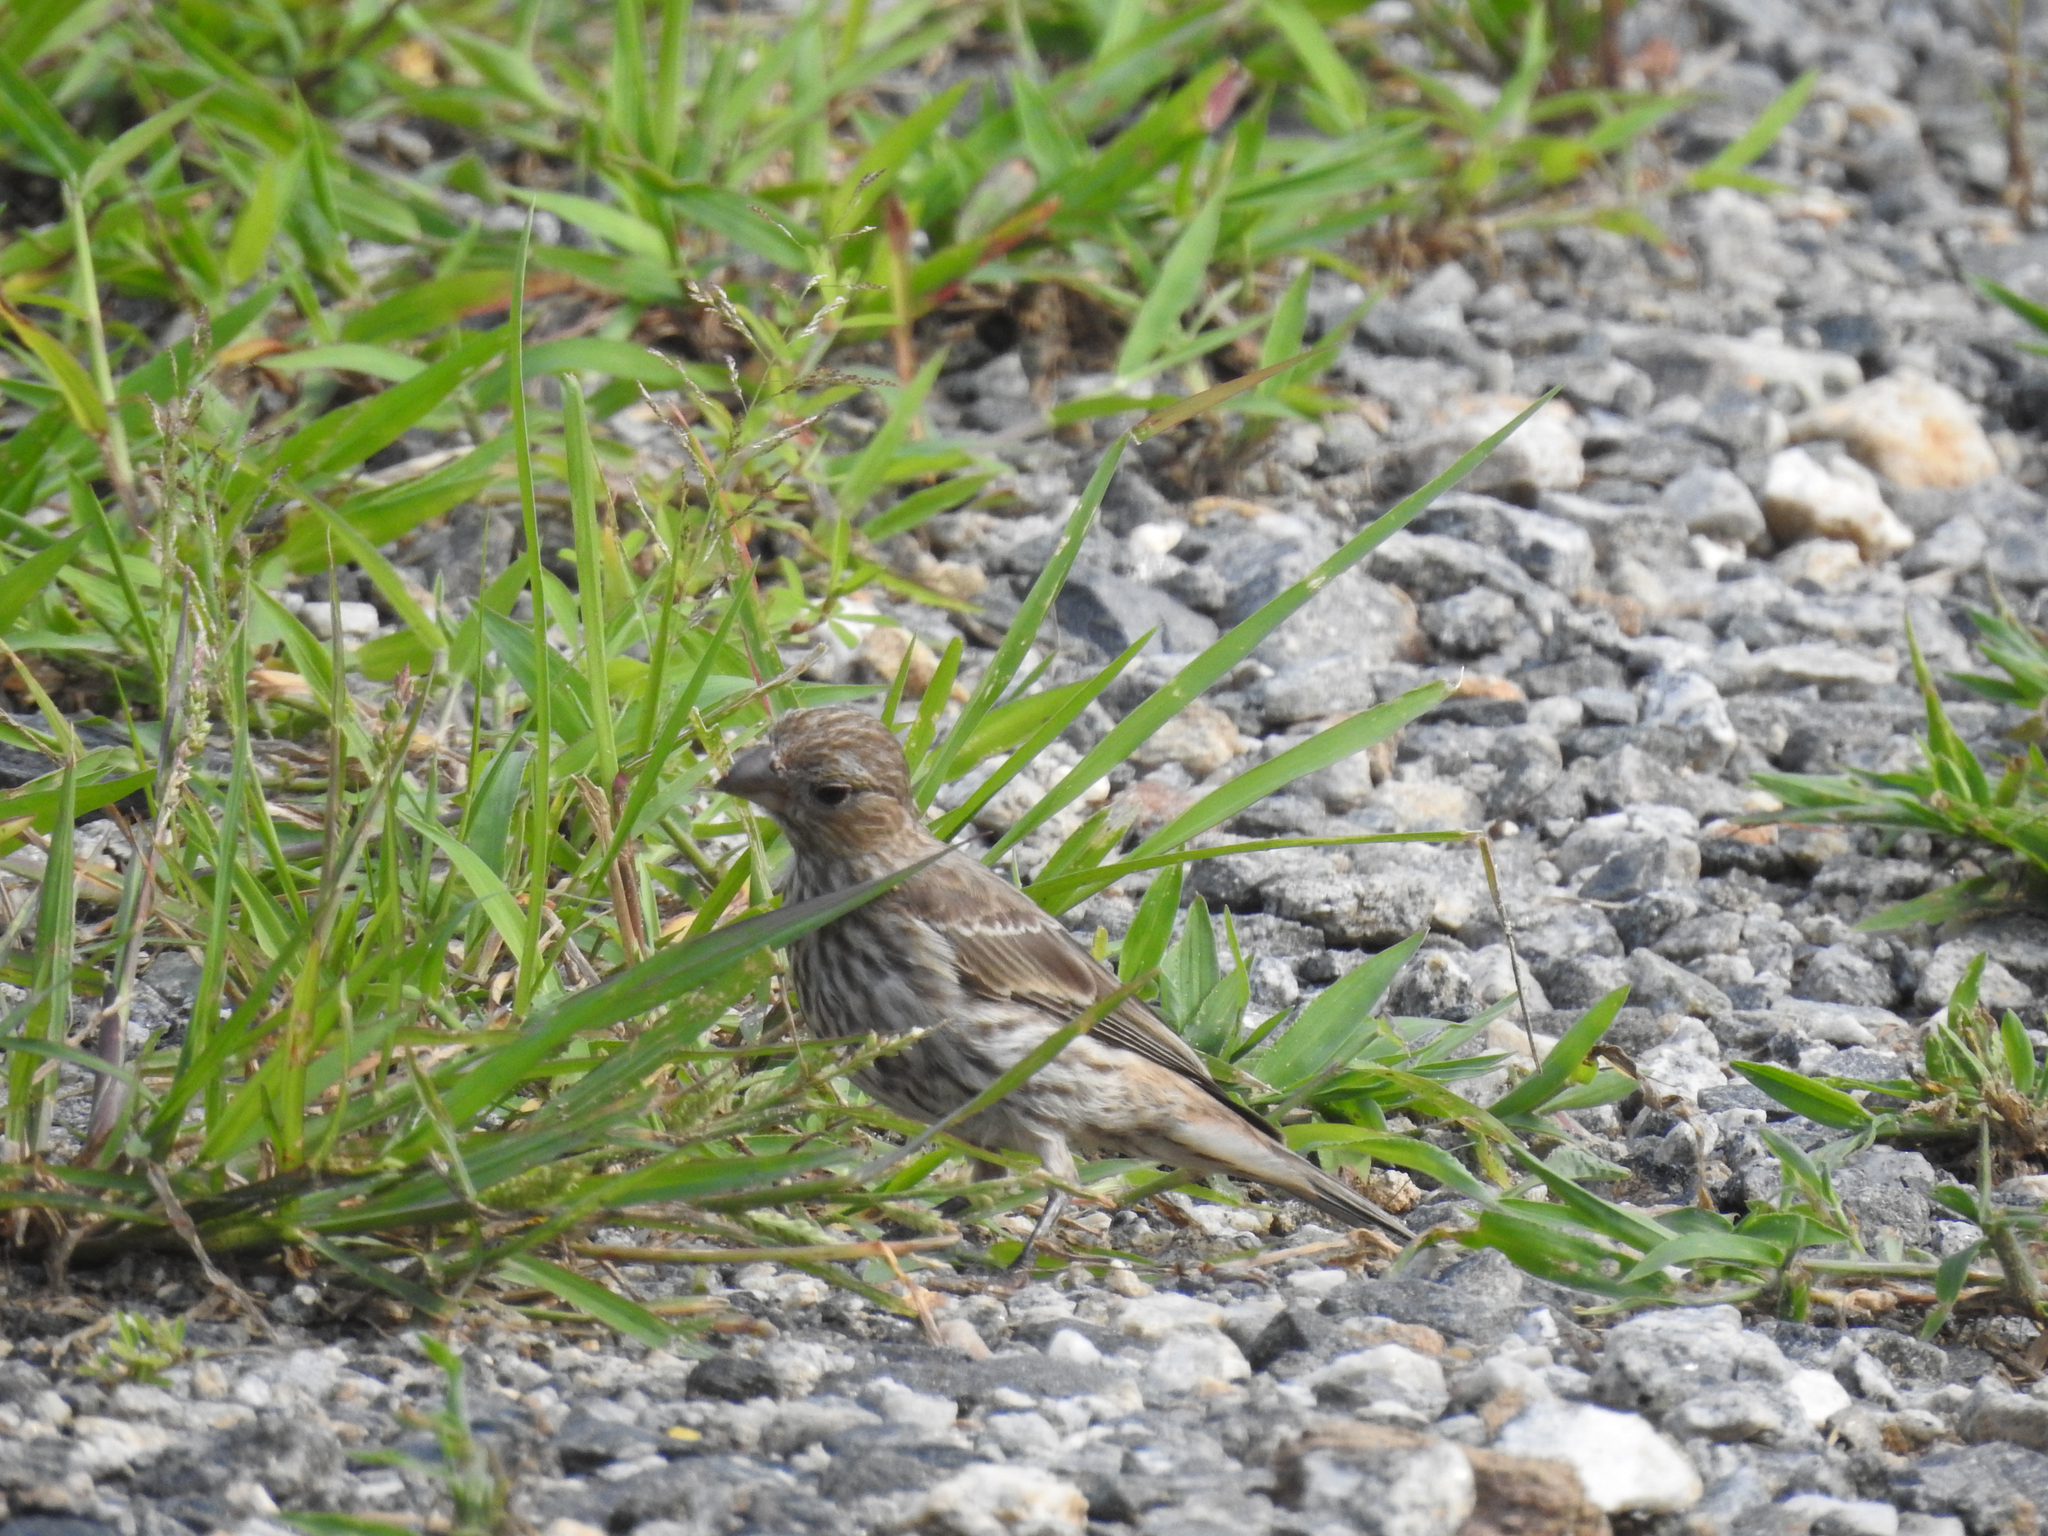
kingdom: Animalia
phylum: Chordata
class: Aves
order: Passeriformes
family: Fringillidae
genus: Haemorhous
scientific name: Haemorhous mexicanus
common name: House finch
